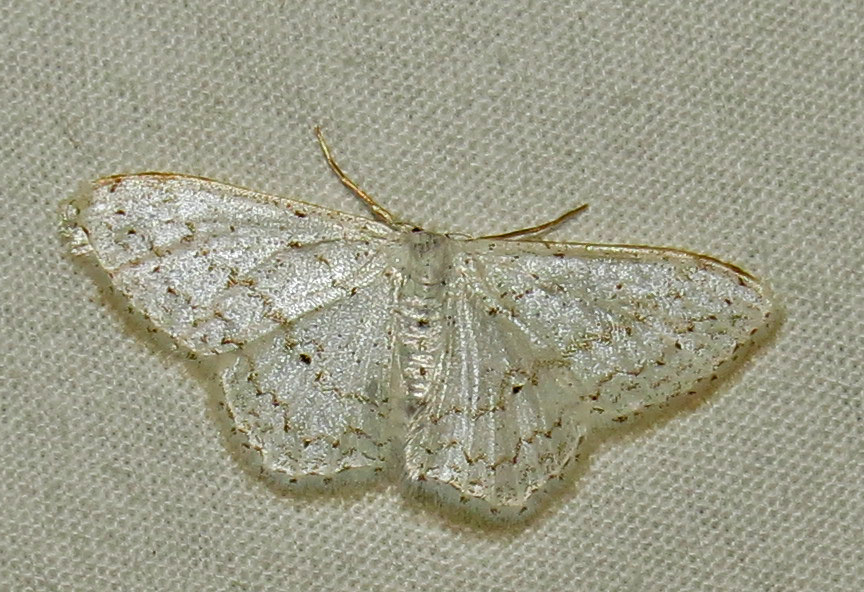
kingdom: Animalia
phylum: Arthropoda
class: Insecta
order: Lepidoptera
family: Geometridae
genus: Idaea
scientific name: Idaea tacturata
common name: Dot-lined wave
